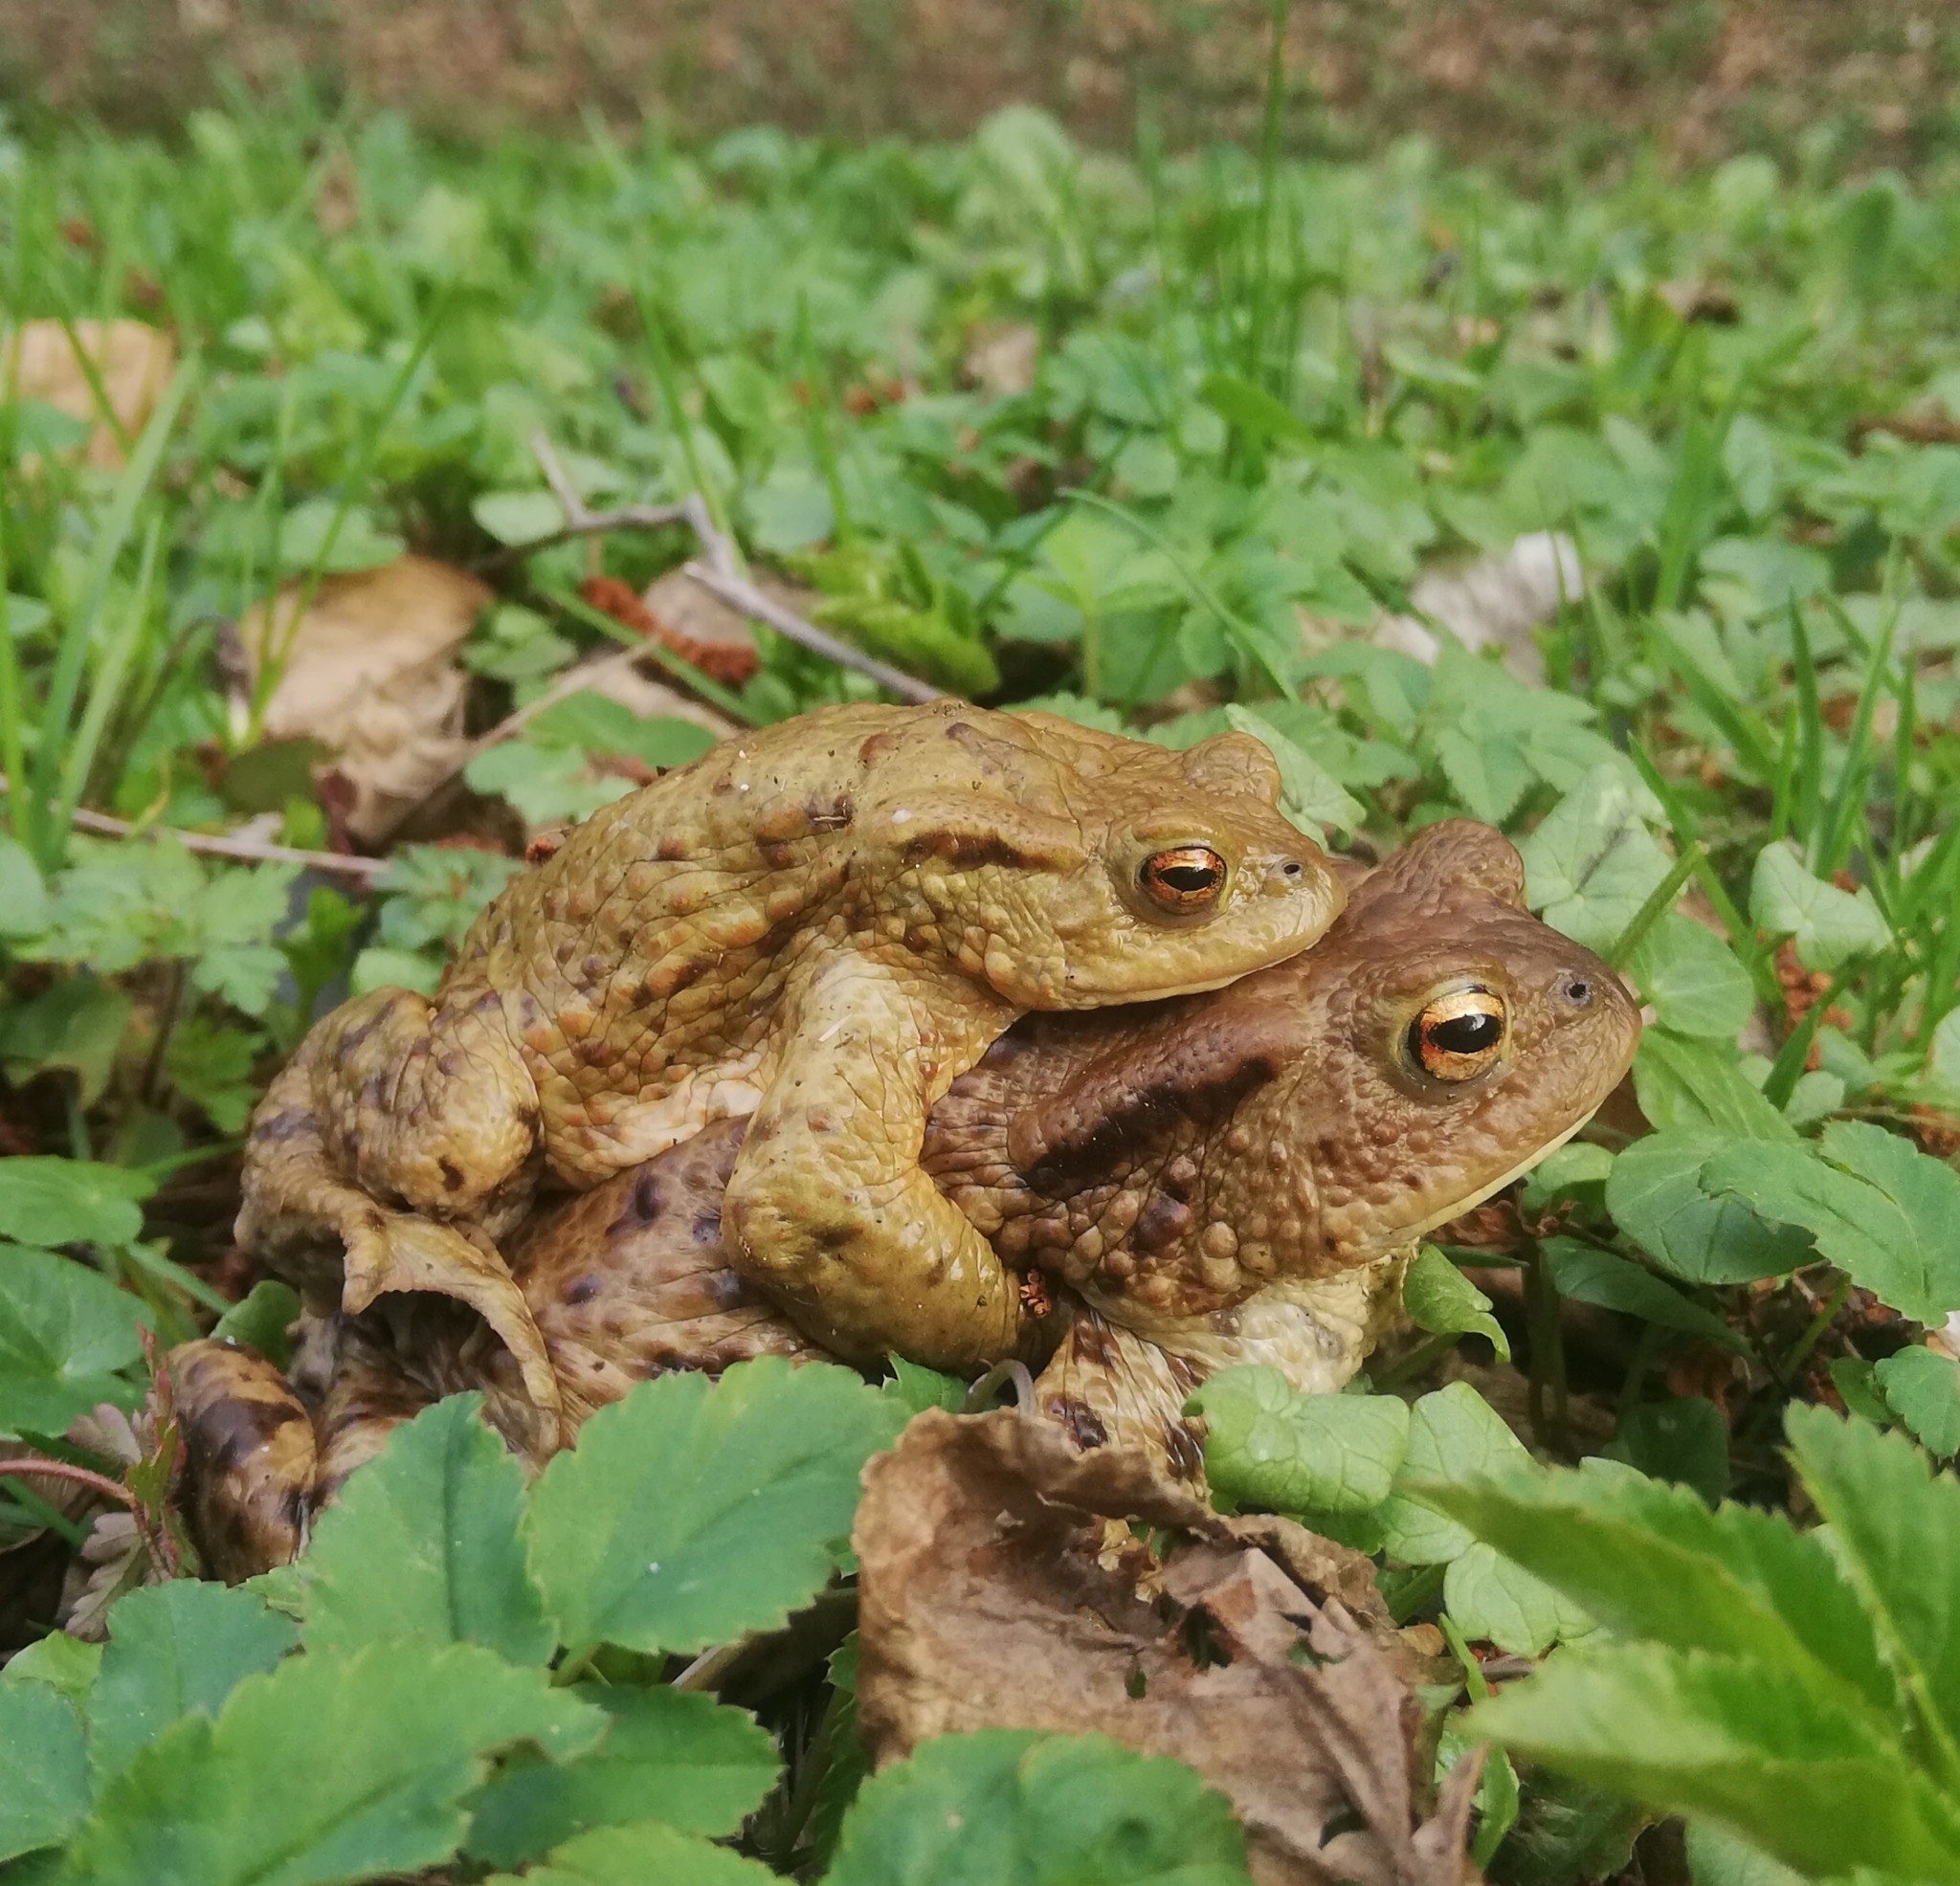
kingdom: Animalia
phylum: Chordata
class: Amphibia
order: Anura
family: Bufonidae
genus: Bufo
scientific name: Bufo bufo
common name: Common toad
